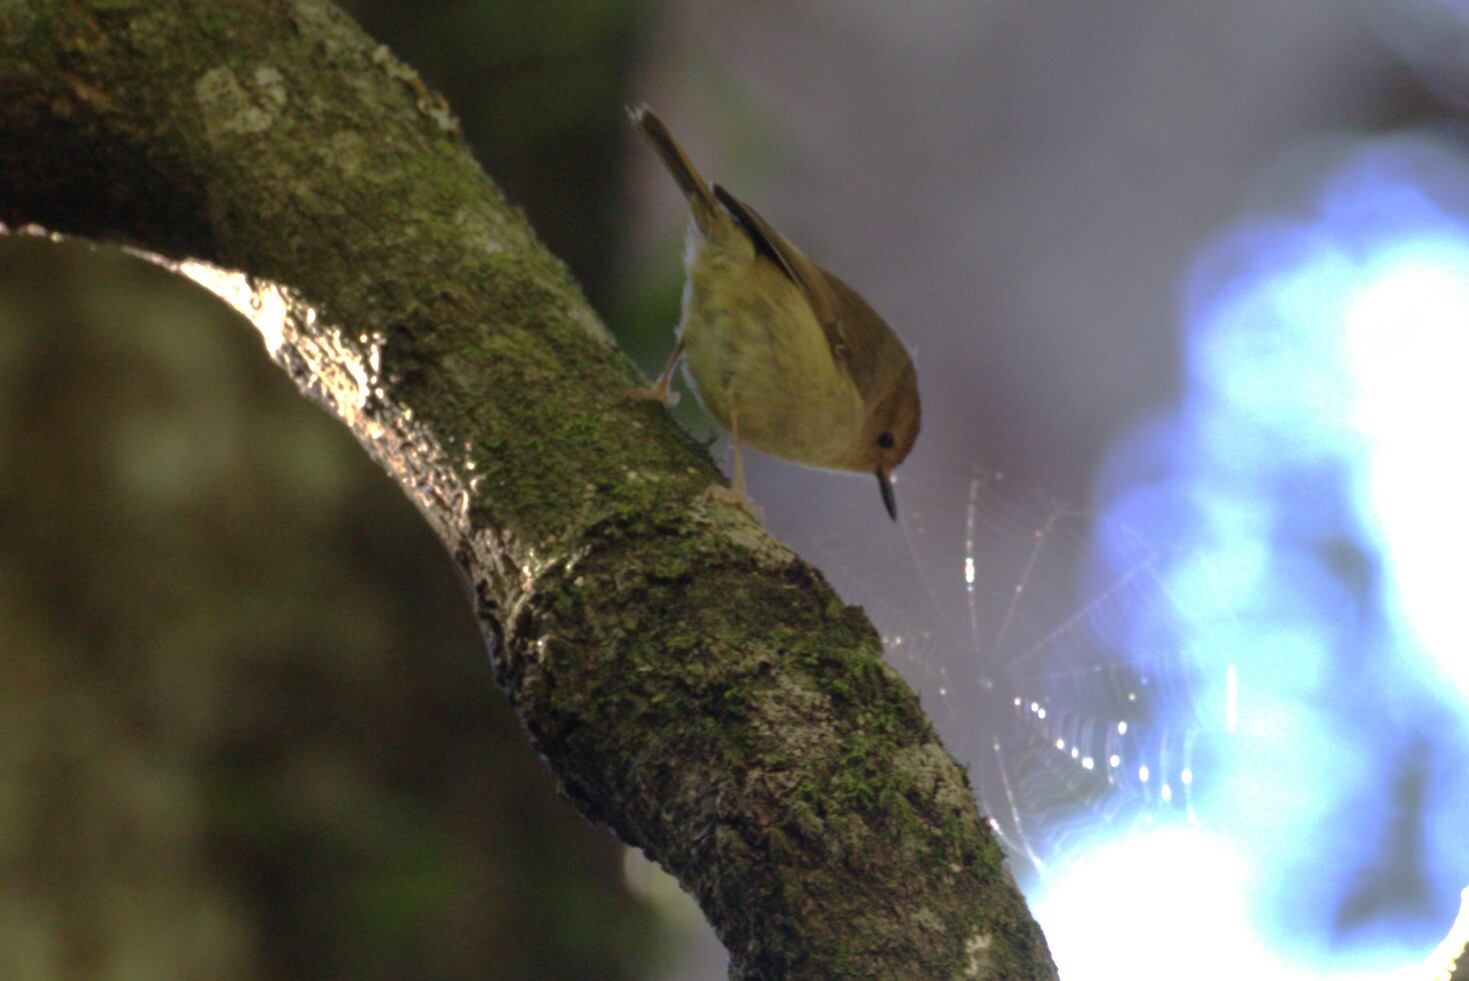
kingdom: Animalia
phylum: Chordata
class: Aves
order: Passeriformes
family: Acanthizidae
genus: Sericornis
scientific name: Sericornis magnirostra
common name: Large-billed scrubwren
